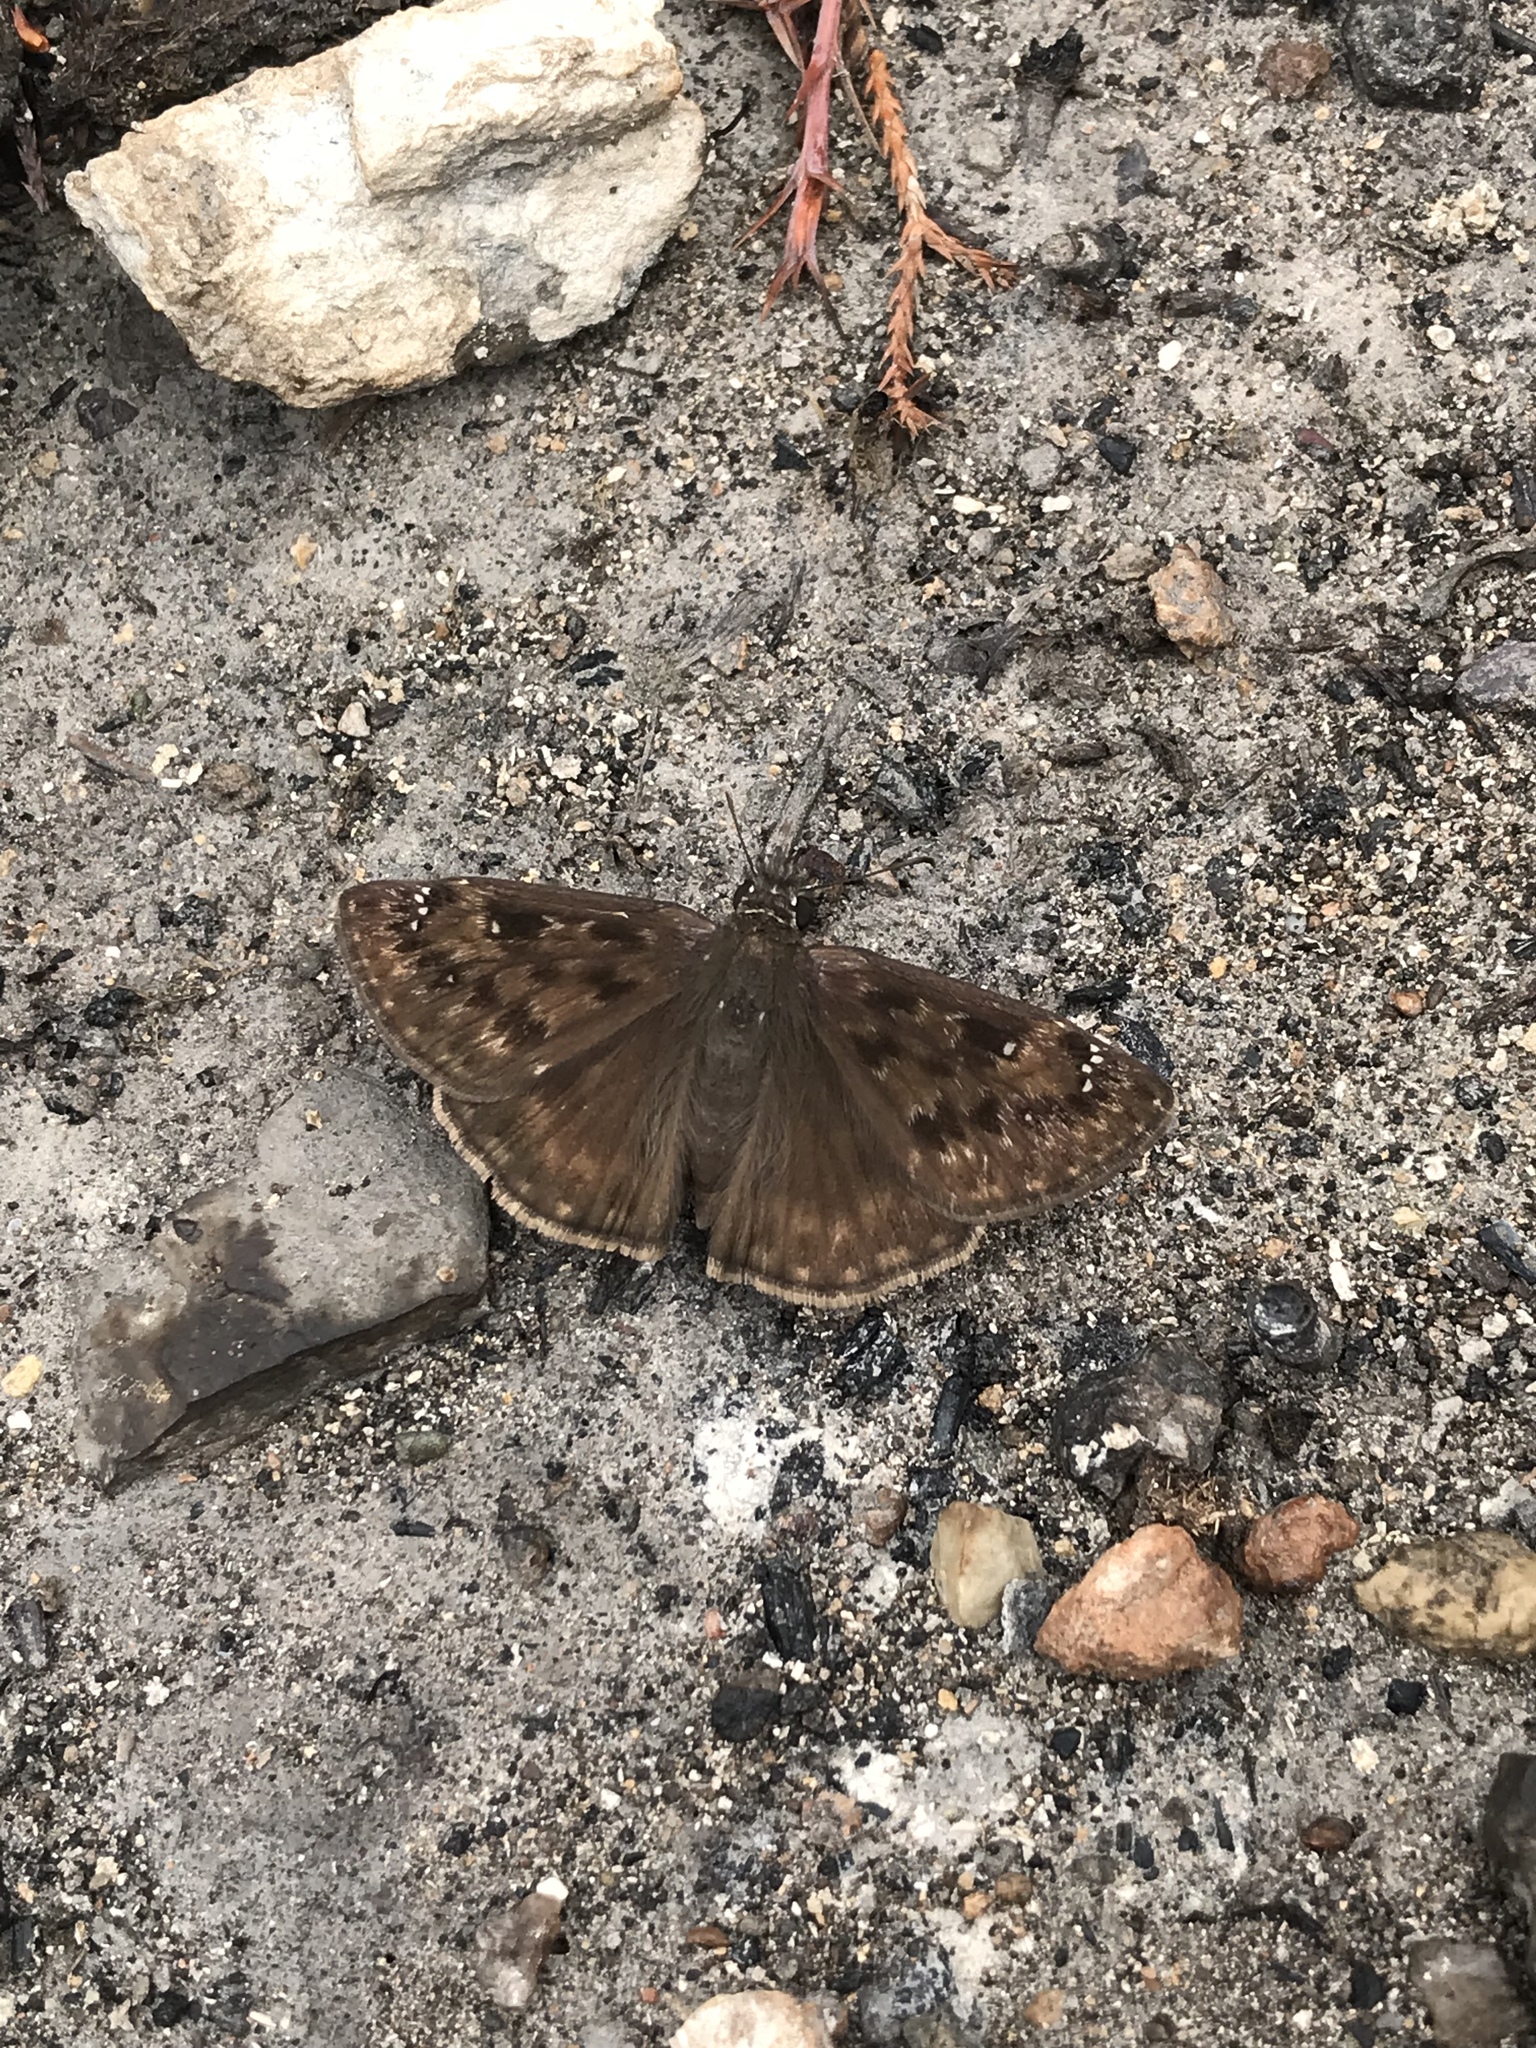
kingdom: Animalia
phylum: Arthropoda
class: Insecta
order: Lepidoptera
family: Hesperiidae
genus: Erynnis
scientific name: Erynnis horatius
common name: Horace's duskywing
